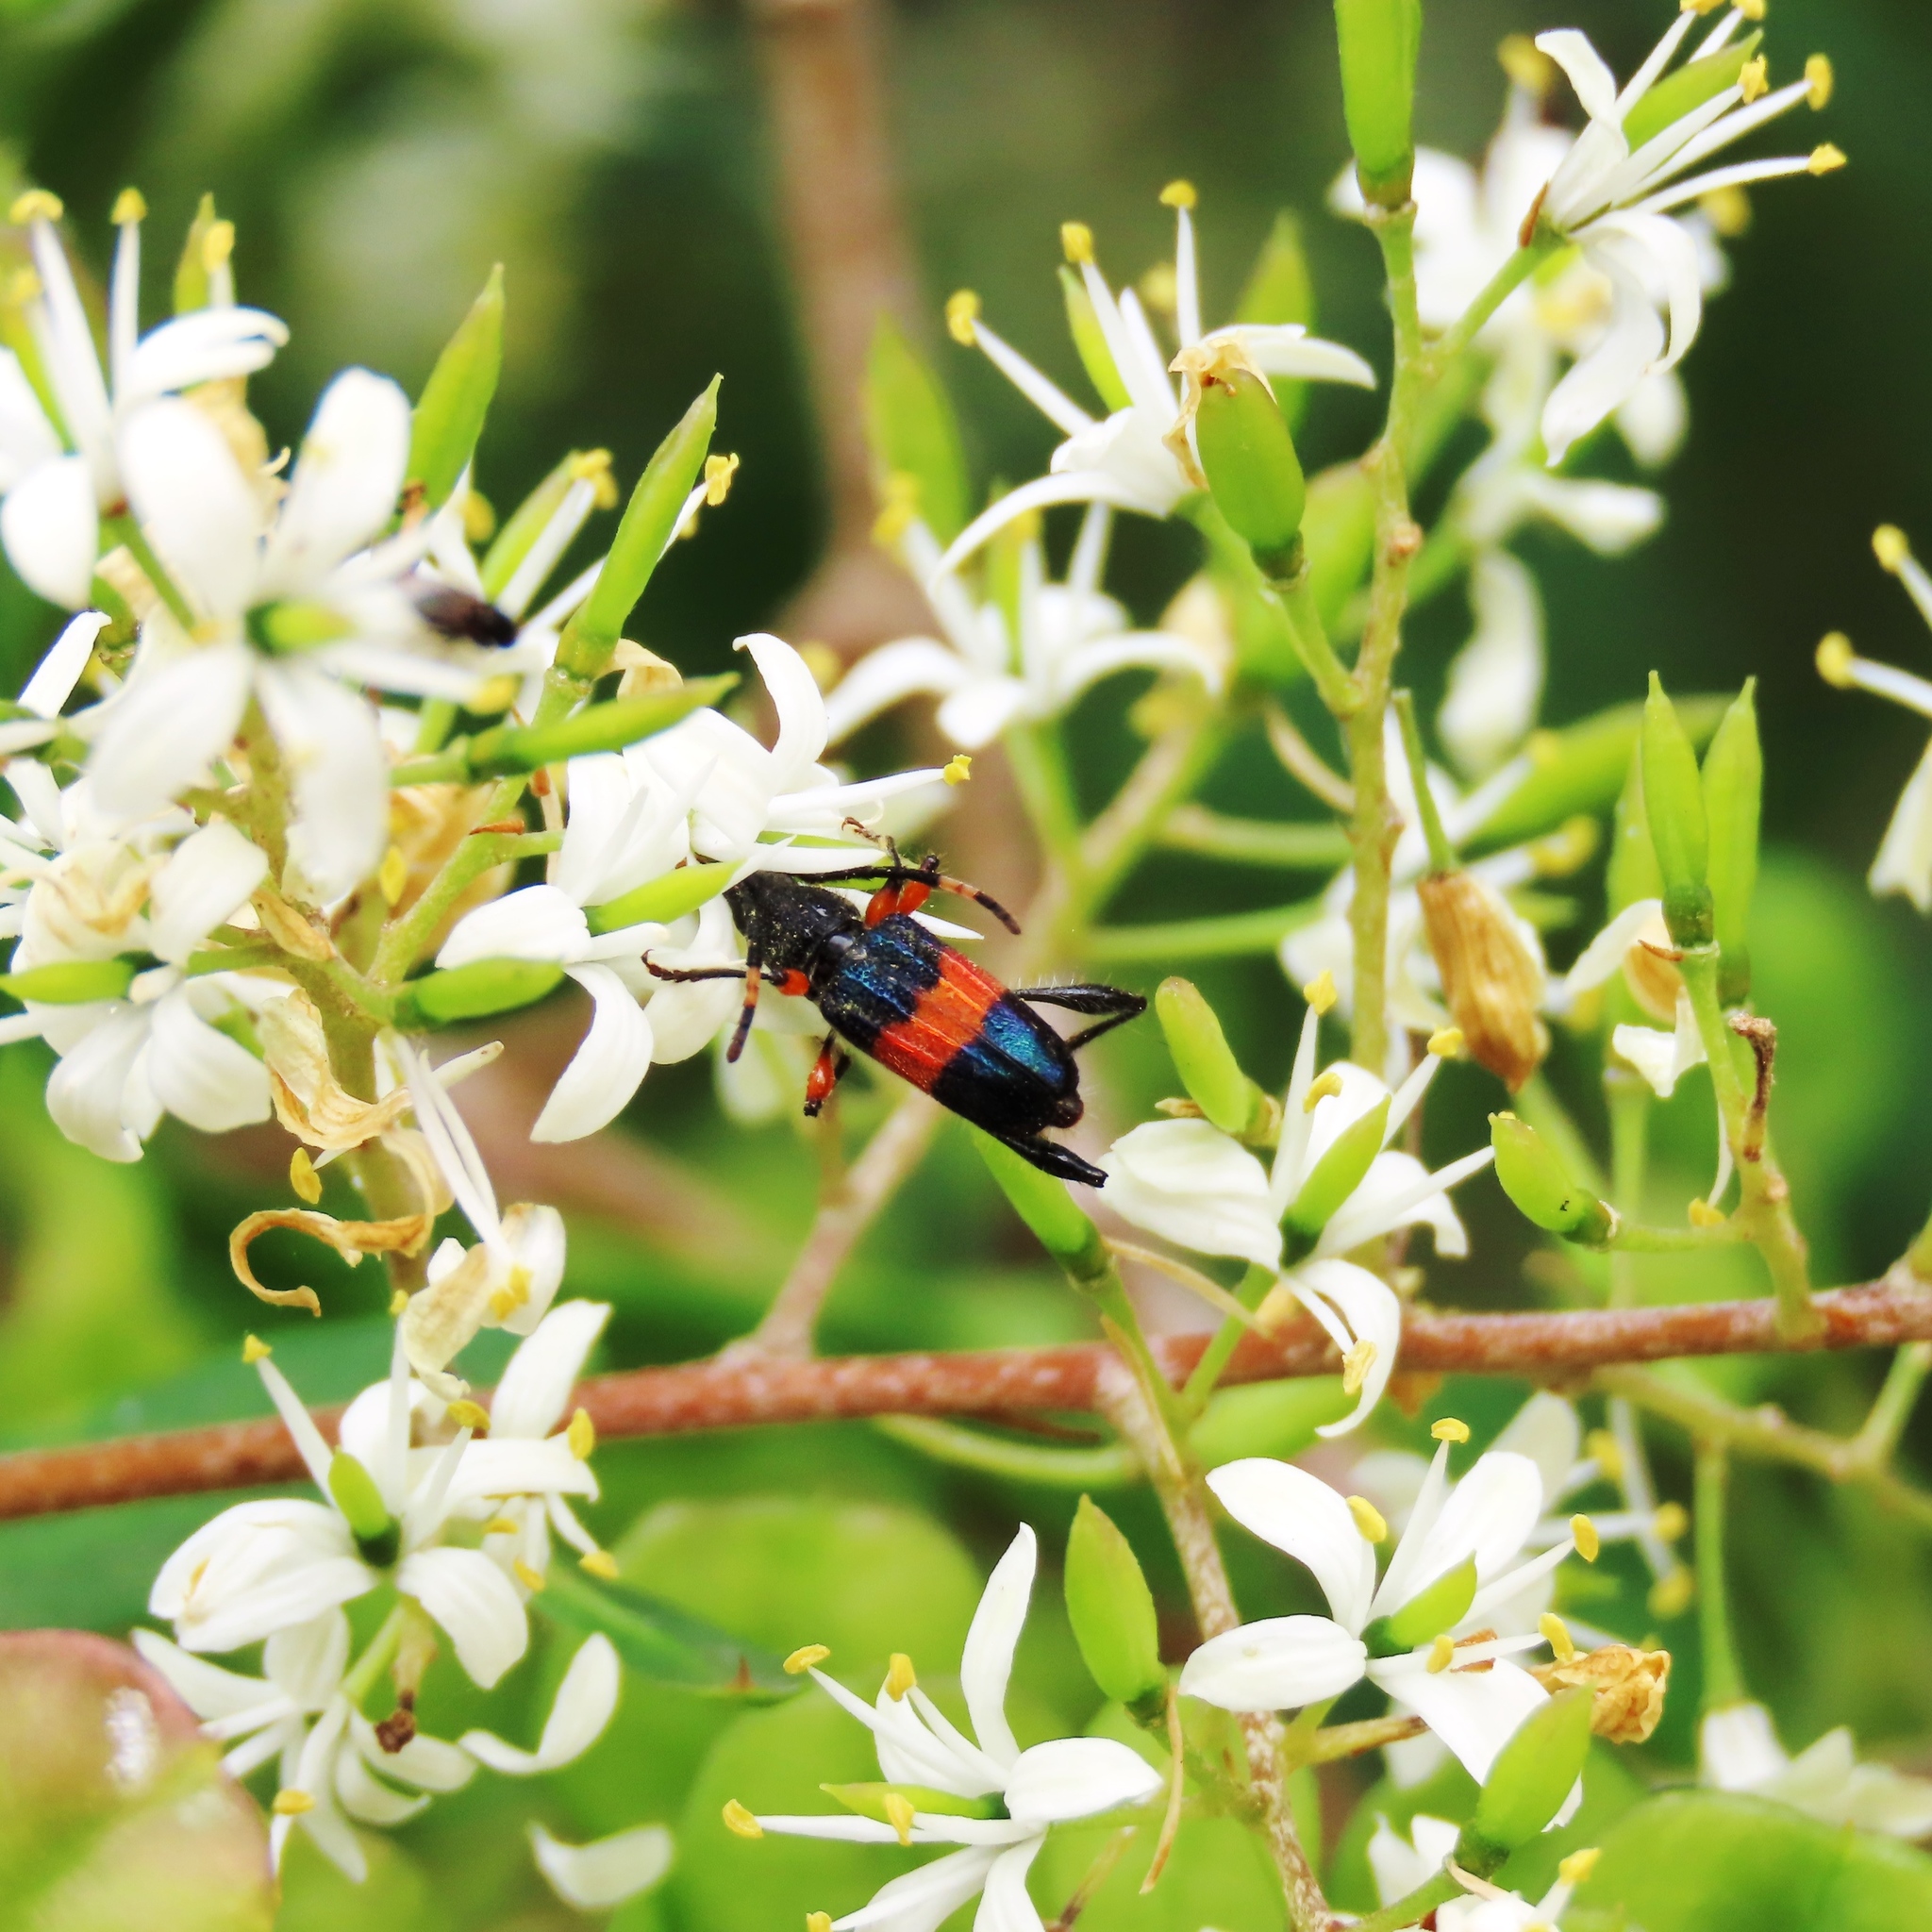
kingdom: Animalia
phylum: Arthropoda
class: Insecta
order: Coleoptera
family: Cerambycidae
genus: Obrida
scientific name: Obrida fascialis
